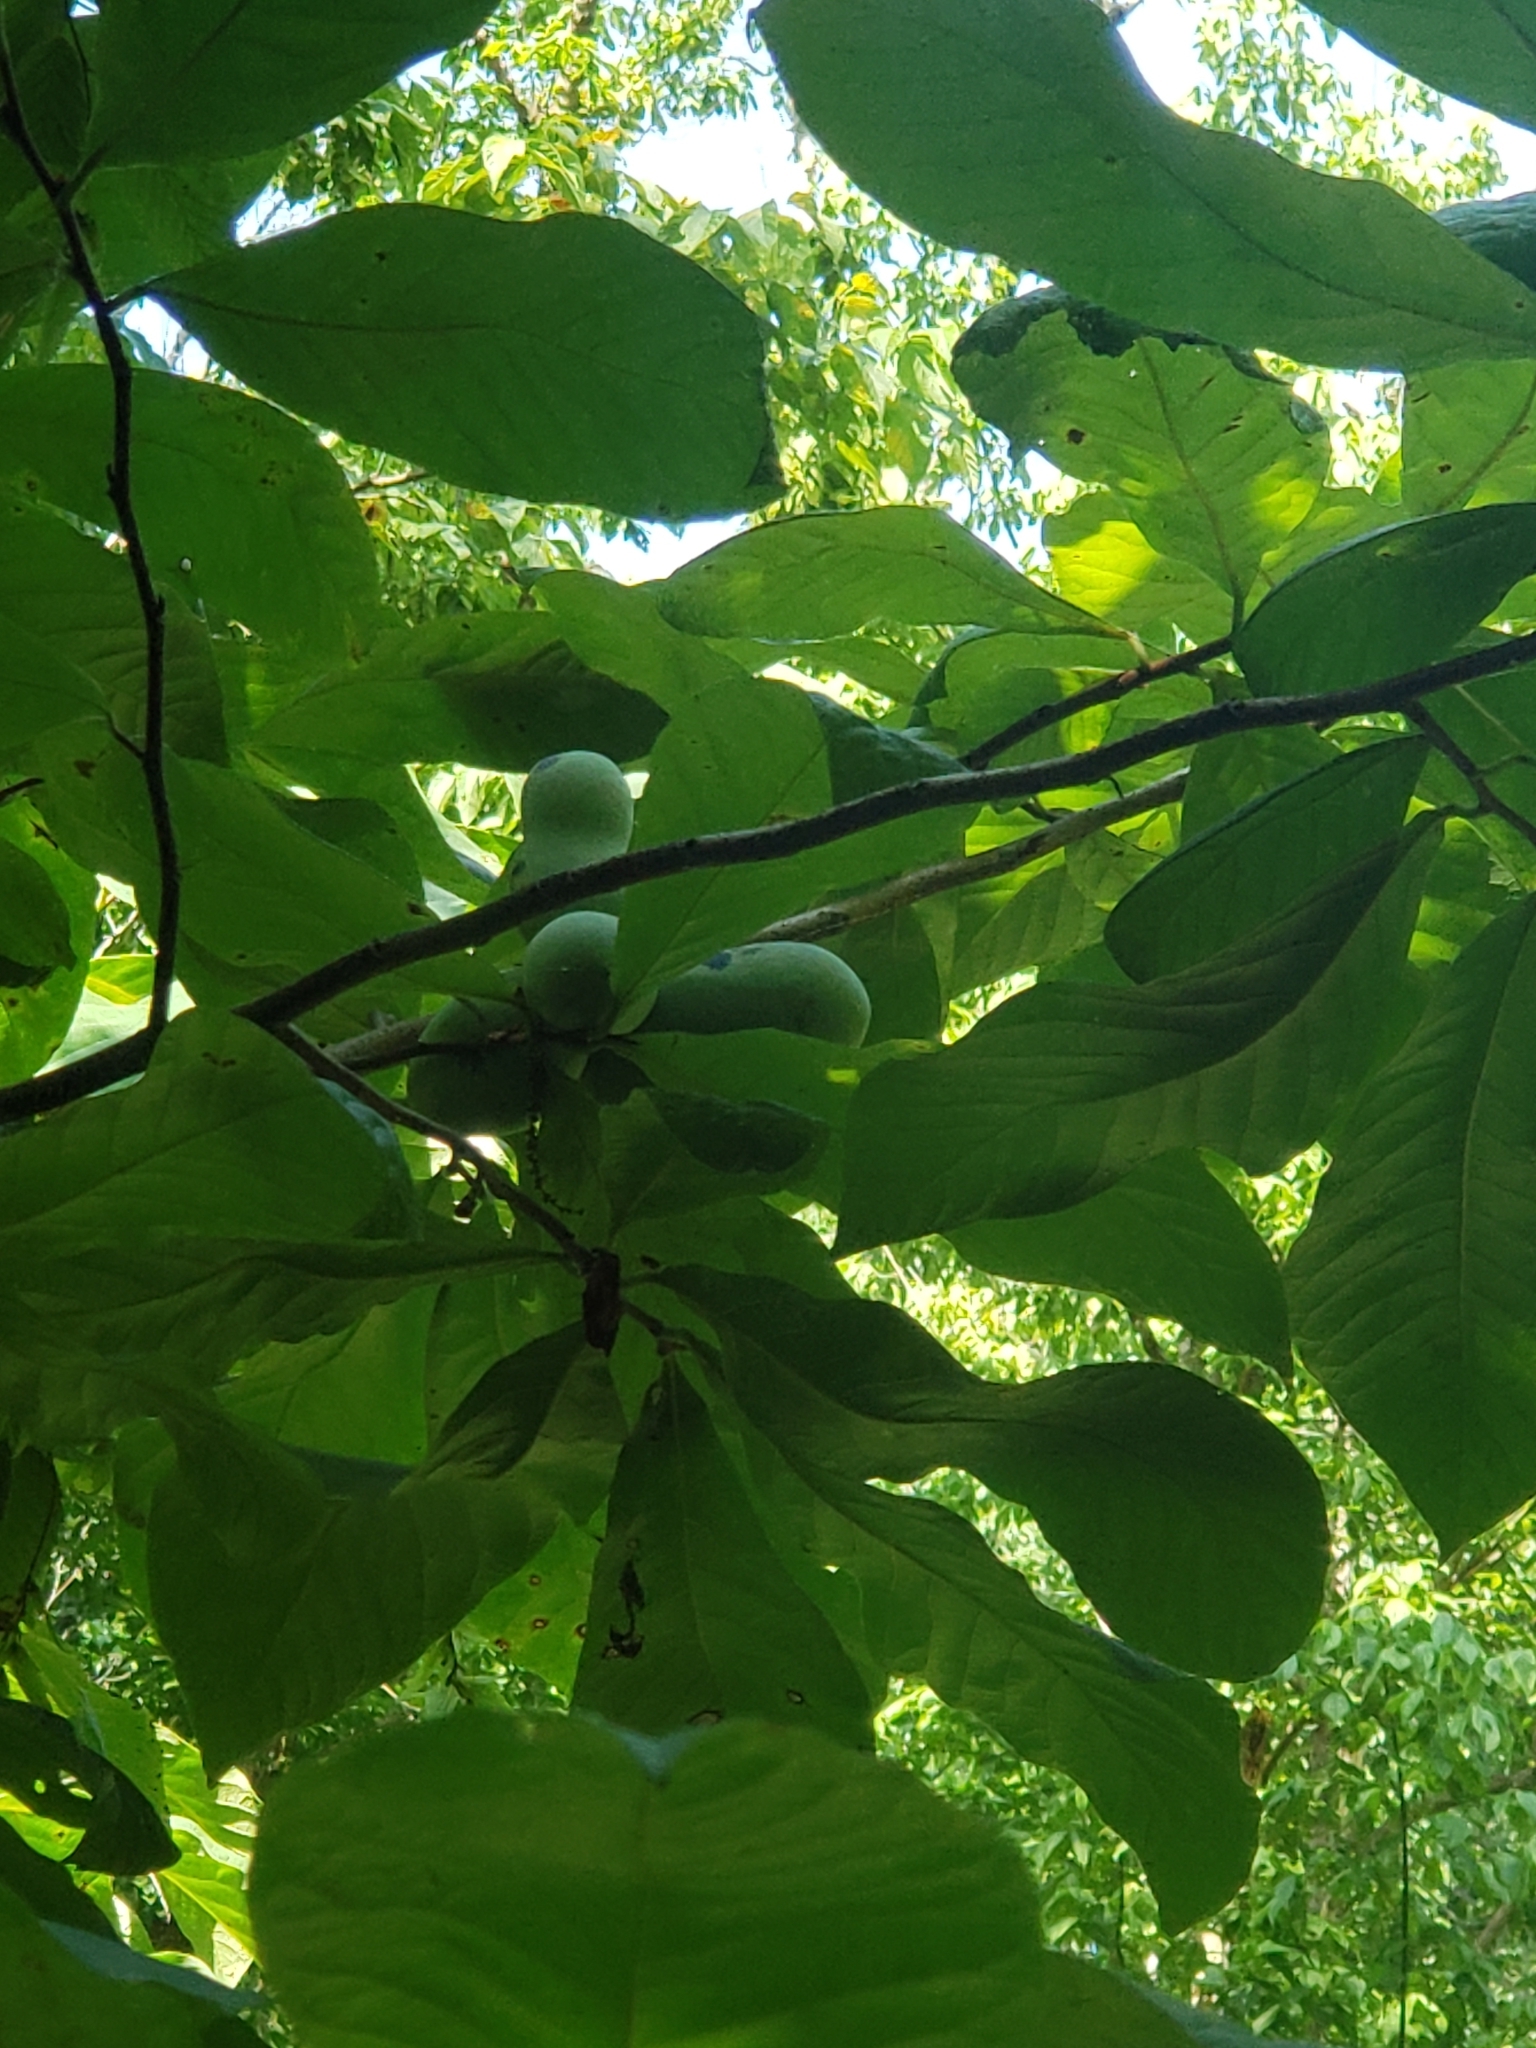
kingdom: Plantae
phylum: Tracheophyta
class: Magnoliopsida
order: Magnoliales
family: Annonaceae
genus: Asimina
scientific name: Asimina triloba
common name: Dog-banana
